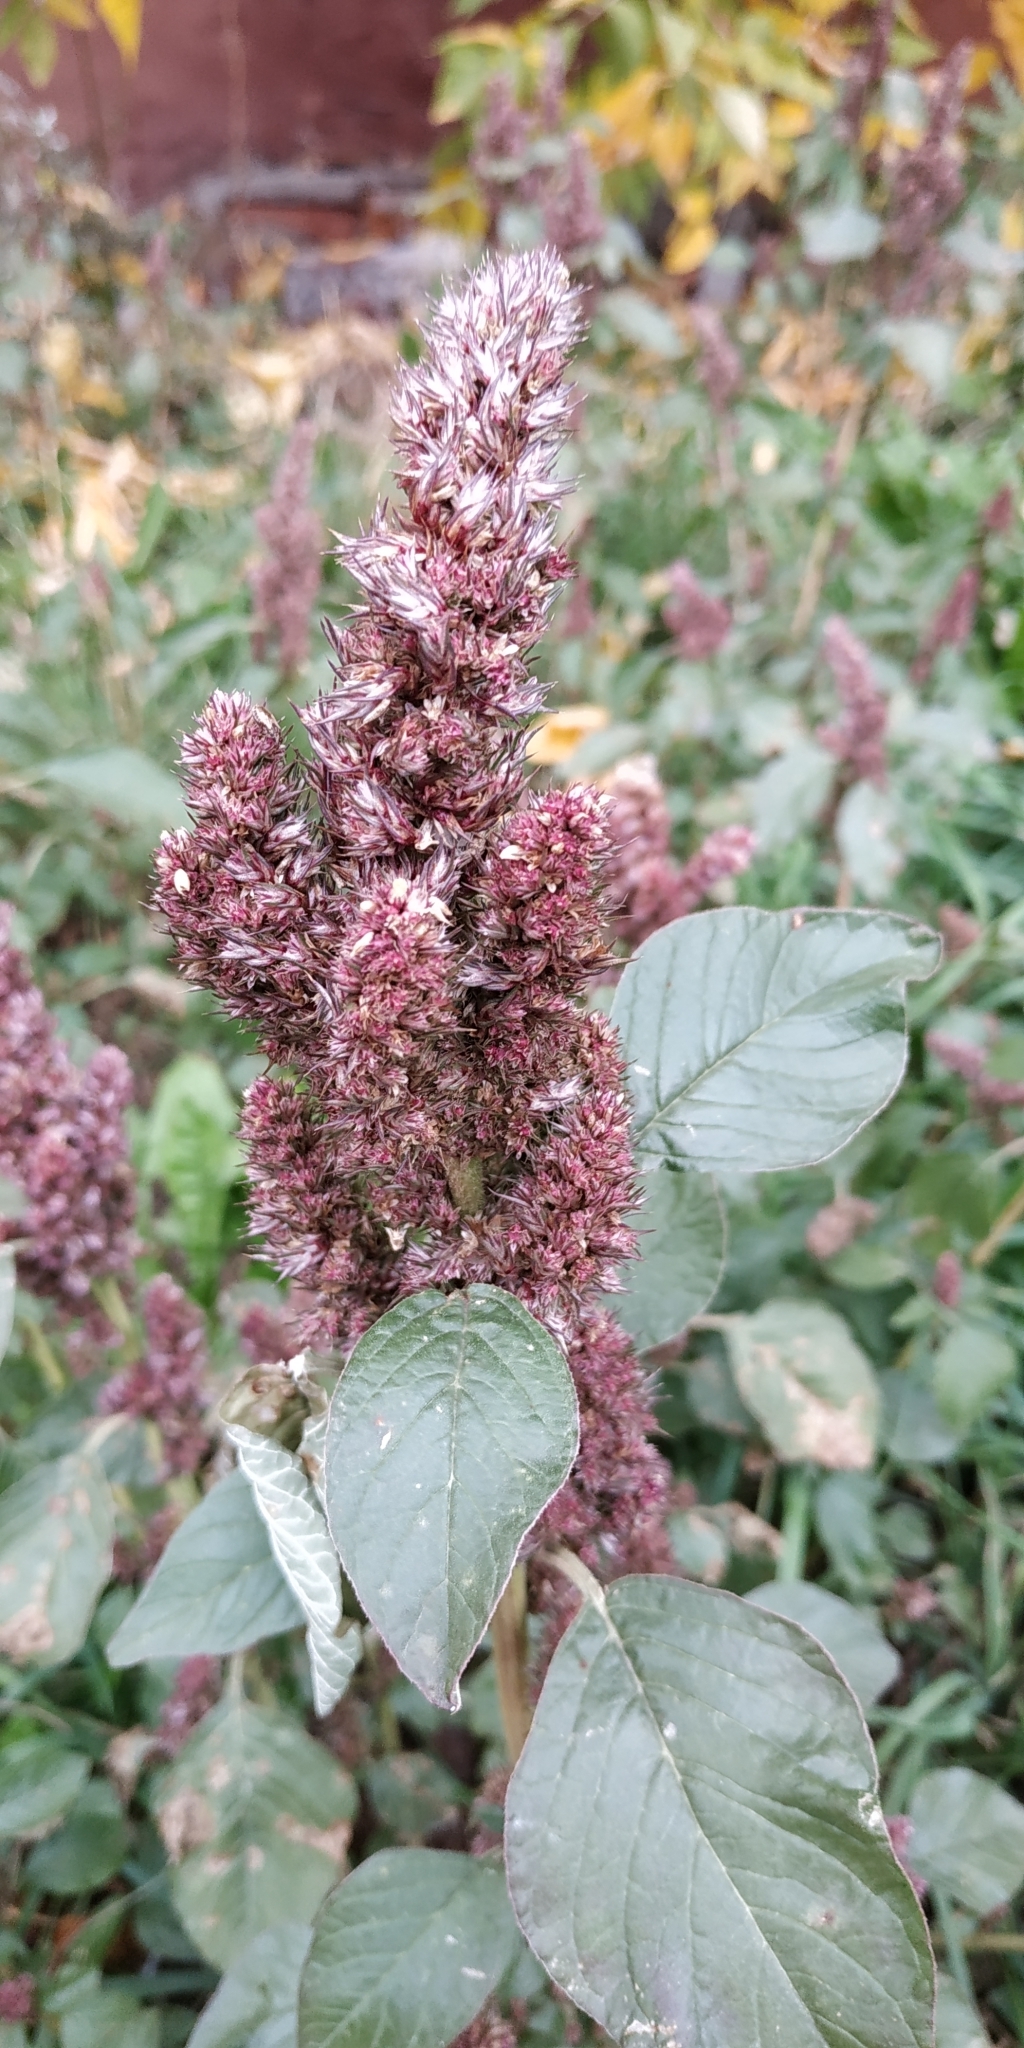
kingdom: Plantae
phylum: Tracheophyta
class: Magnoliopsida
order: Caryophyllales
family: Amaranthaceae
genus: Amaranthus
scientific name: Amaranthus retroflexus
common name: Redroot amaranth
